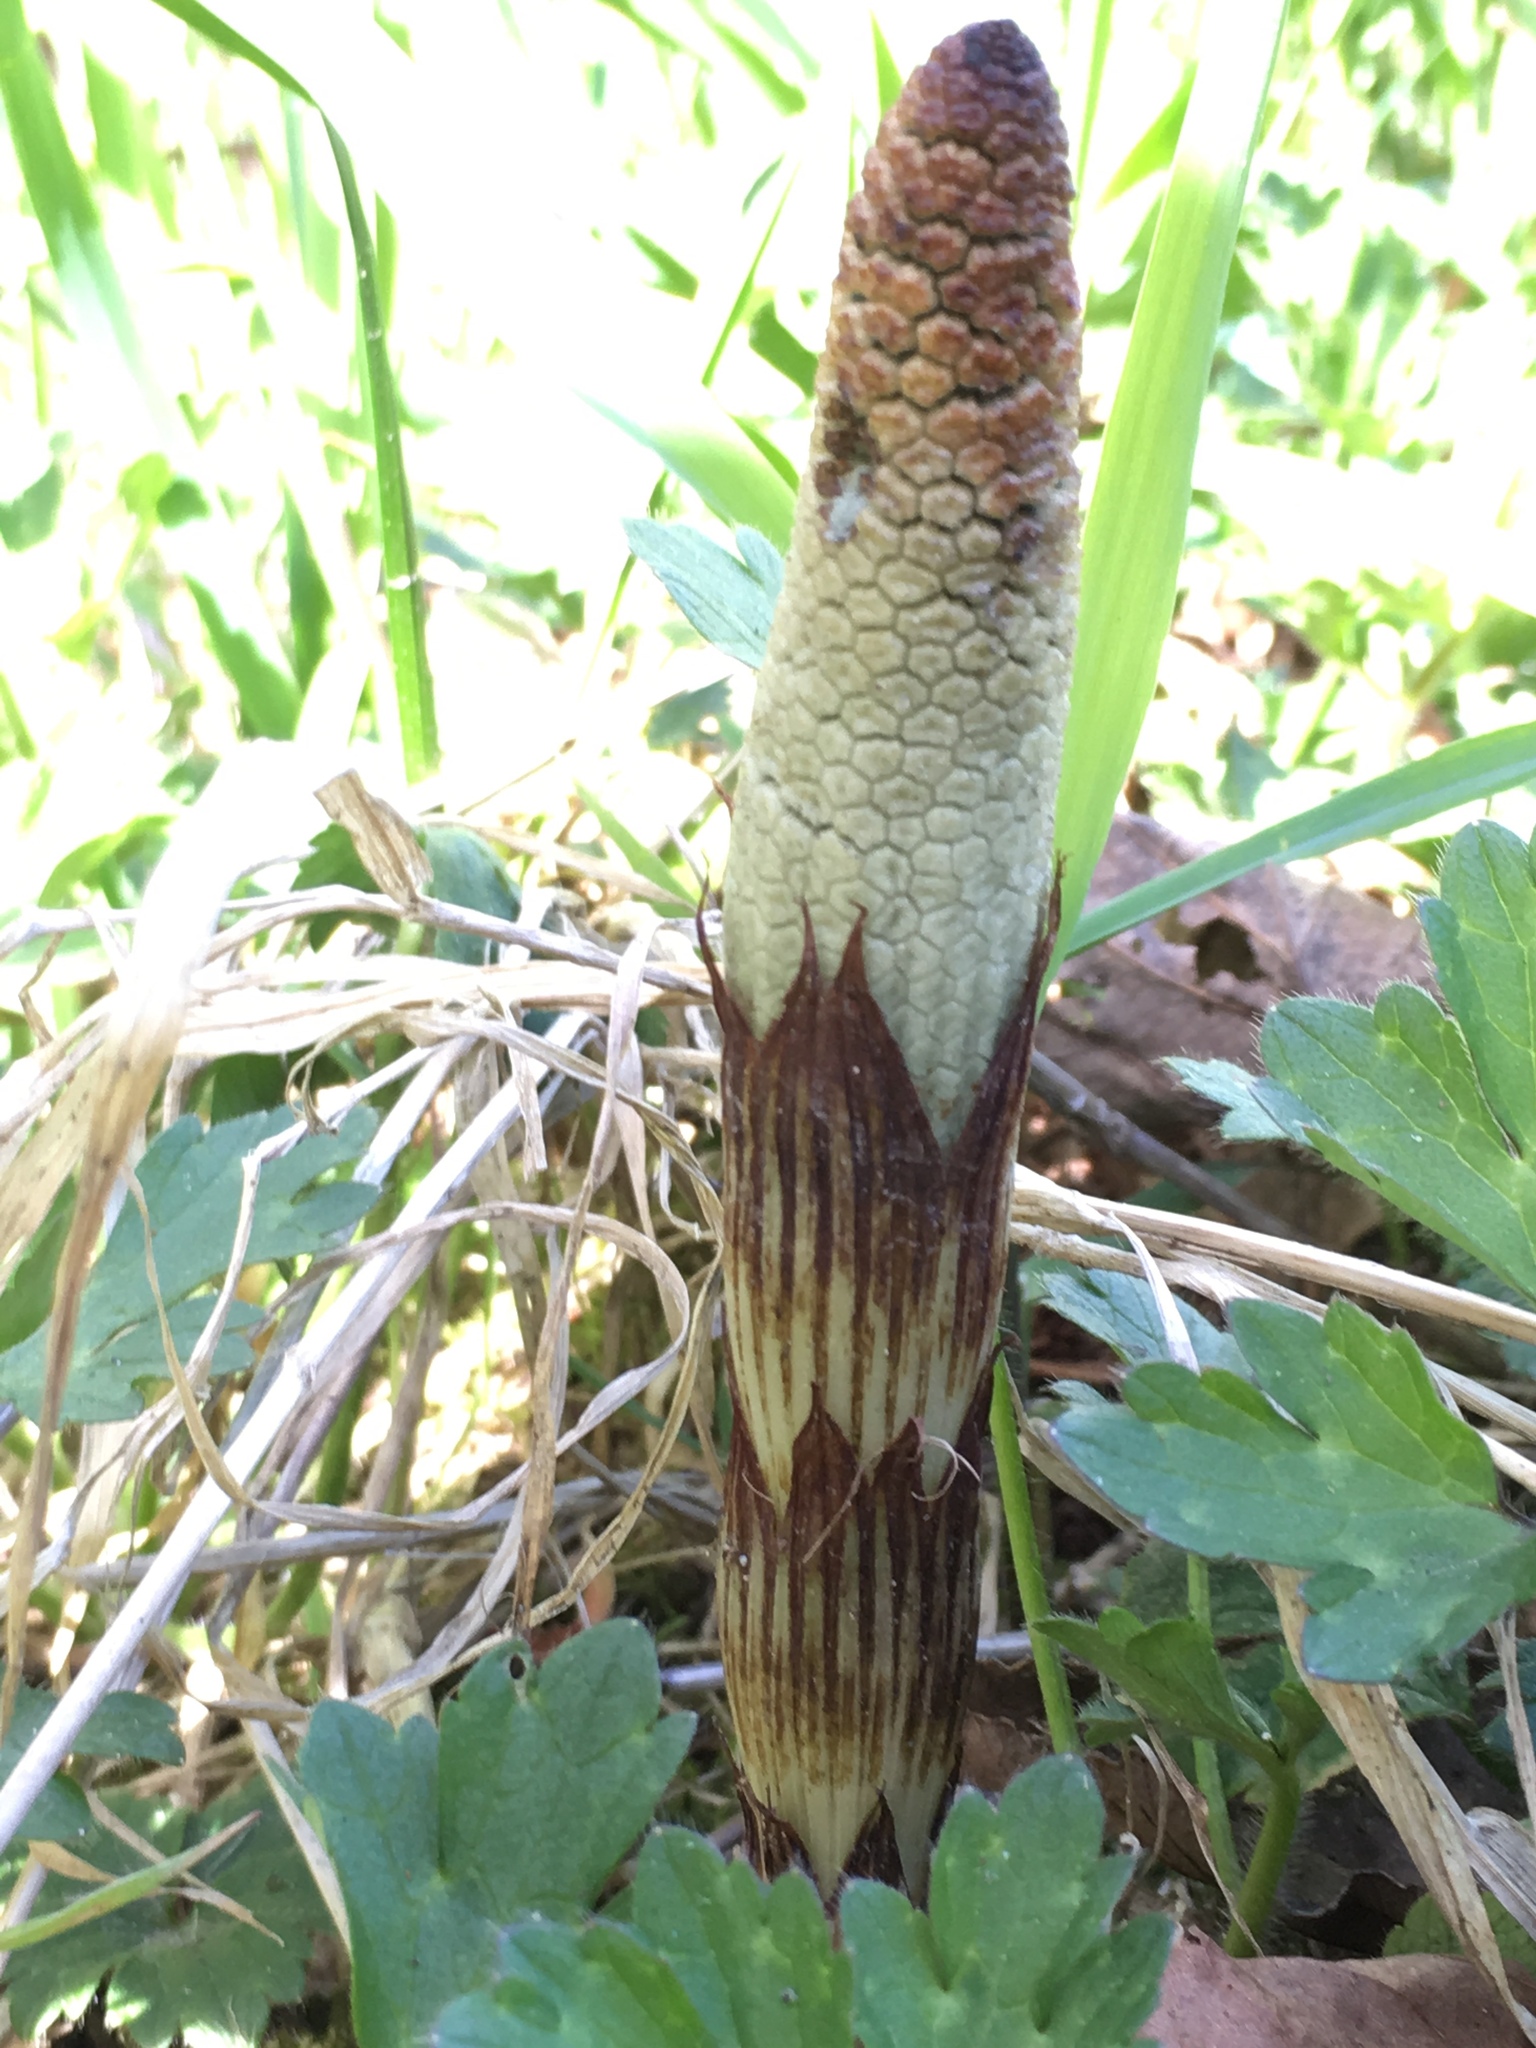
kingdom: Plantae
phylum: Tracheophyta
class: Polypodiopsida
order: Equisetales
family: Equisetaceae
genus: Equisetum
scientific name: Equisetum braunii
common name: Braun's horsetail
